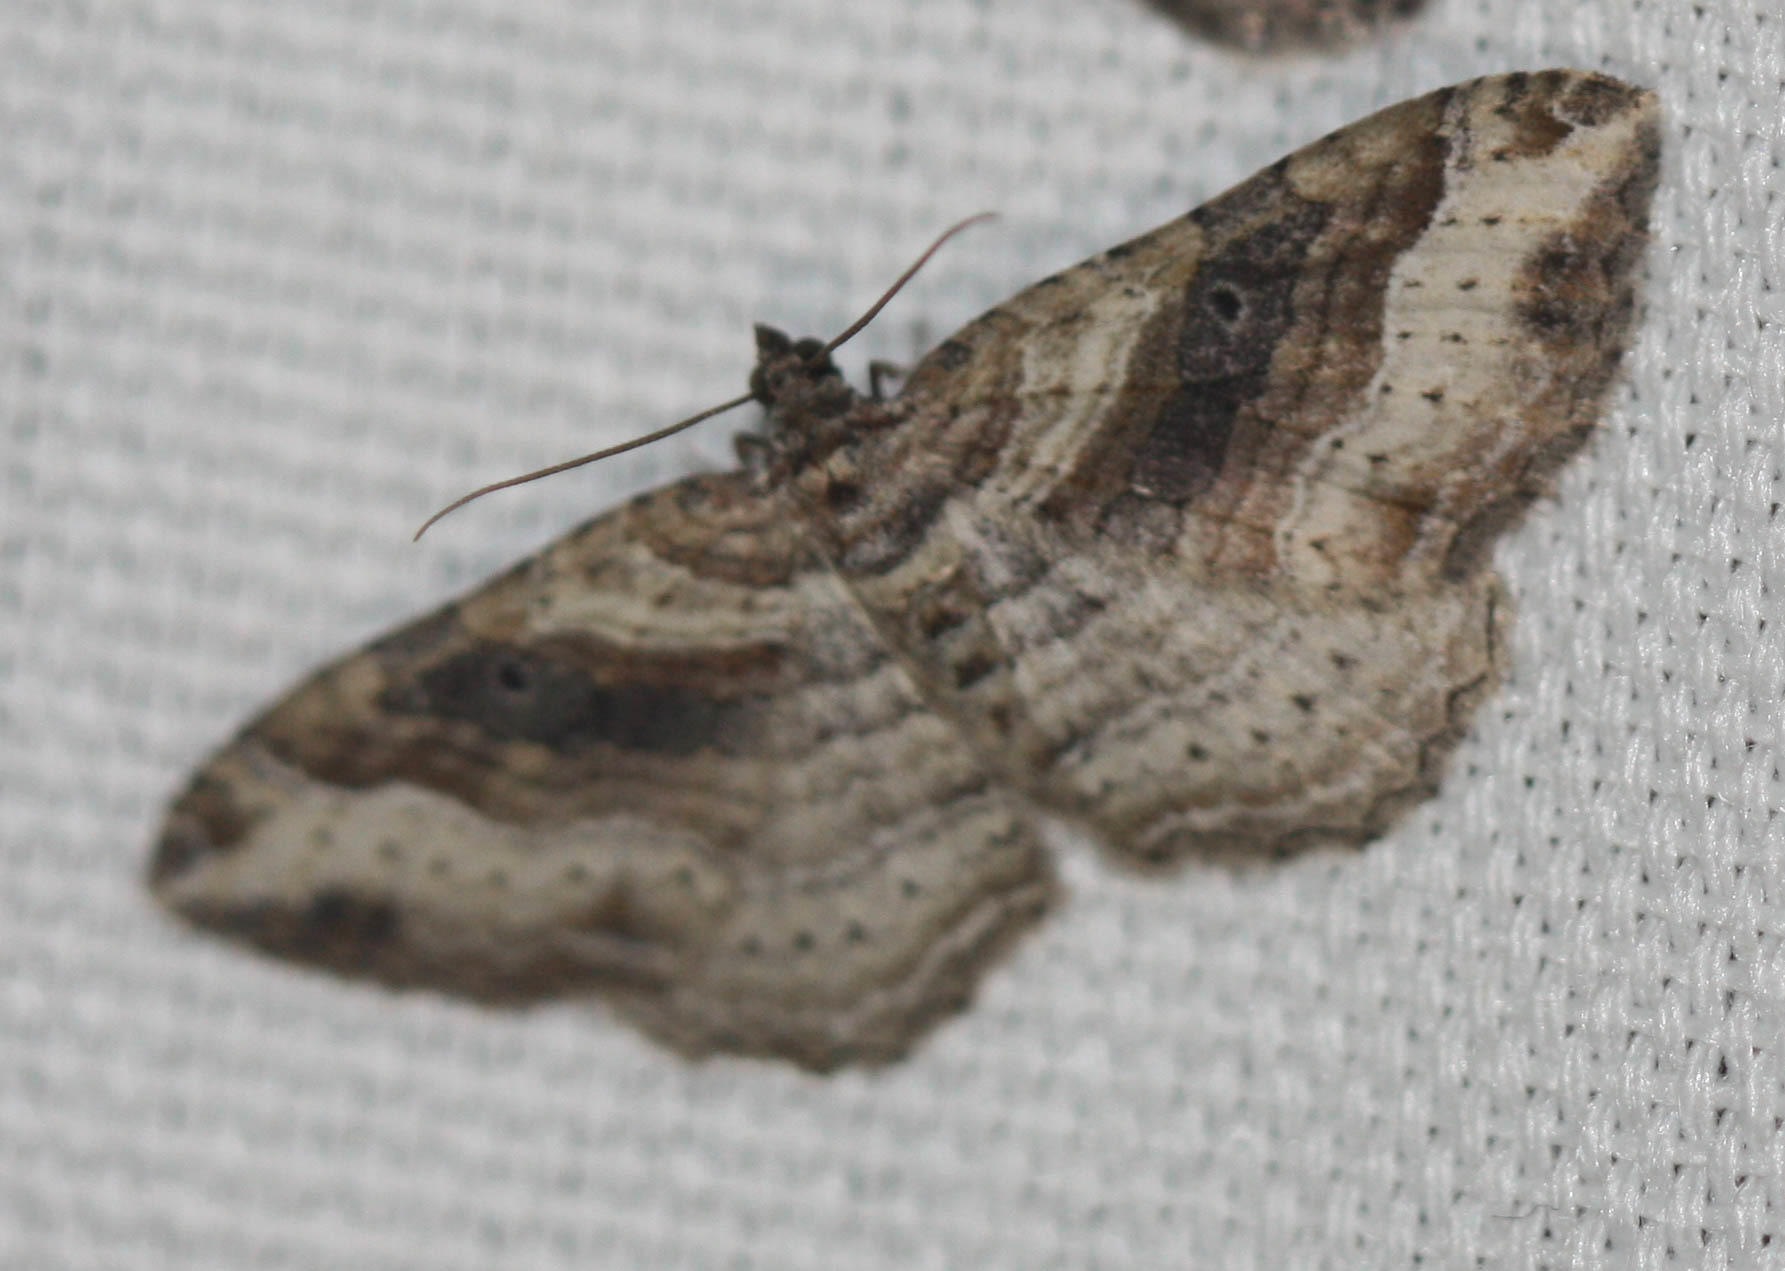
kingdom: Animalia
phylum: Arthropoda
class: Insecta
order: Lepidoptera
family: Geometridae
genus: Costaconvexa
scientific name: Costaconvexa centrostrigaria
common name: Bent-line carpet
